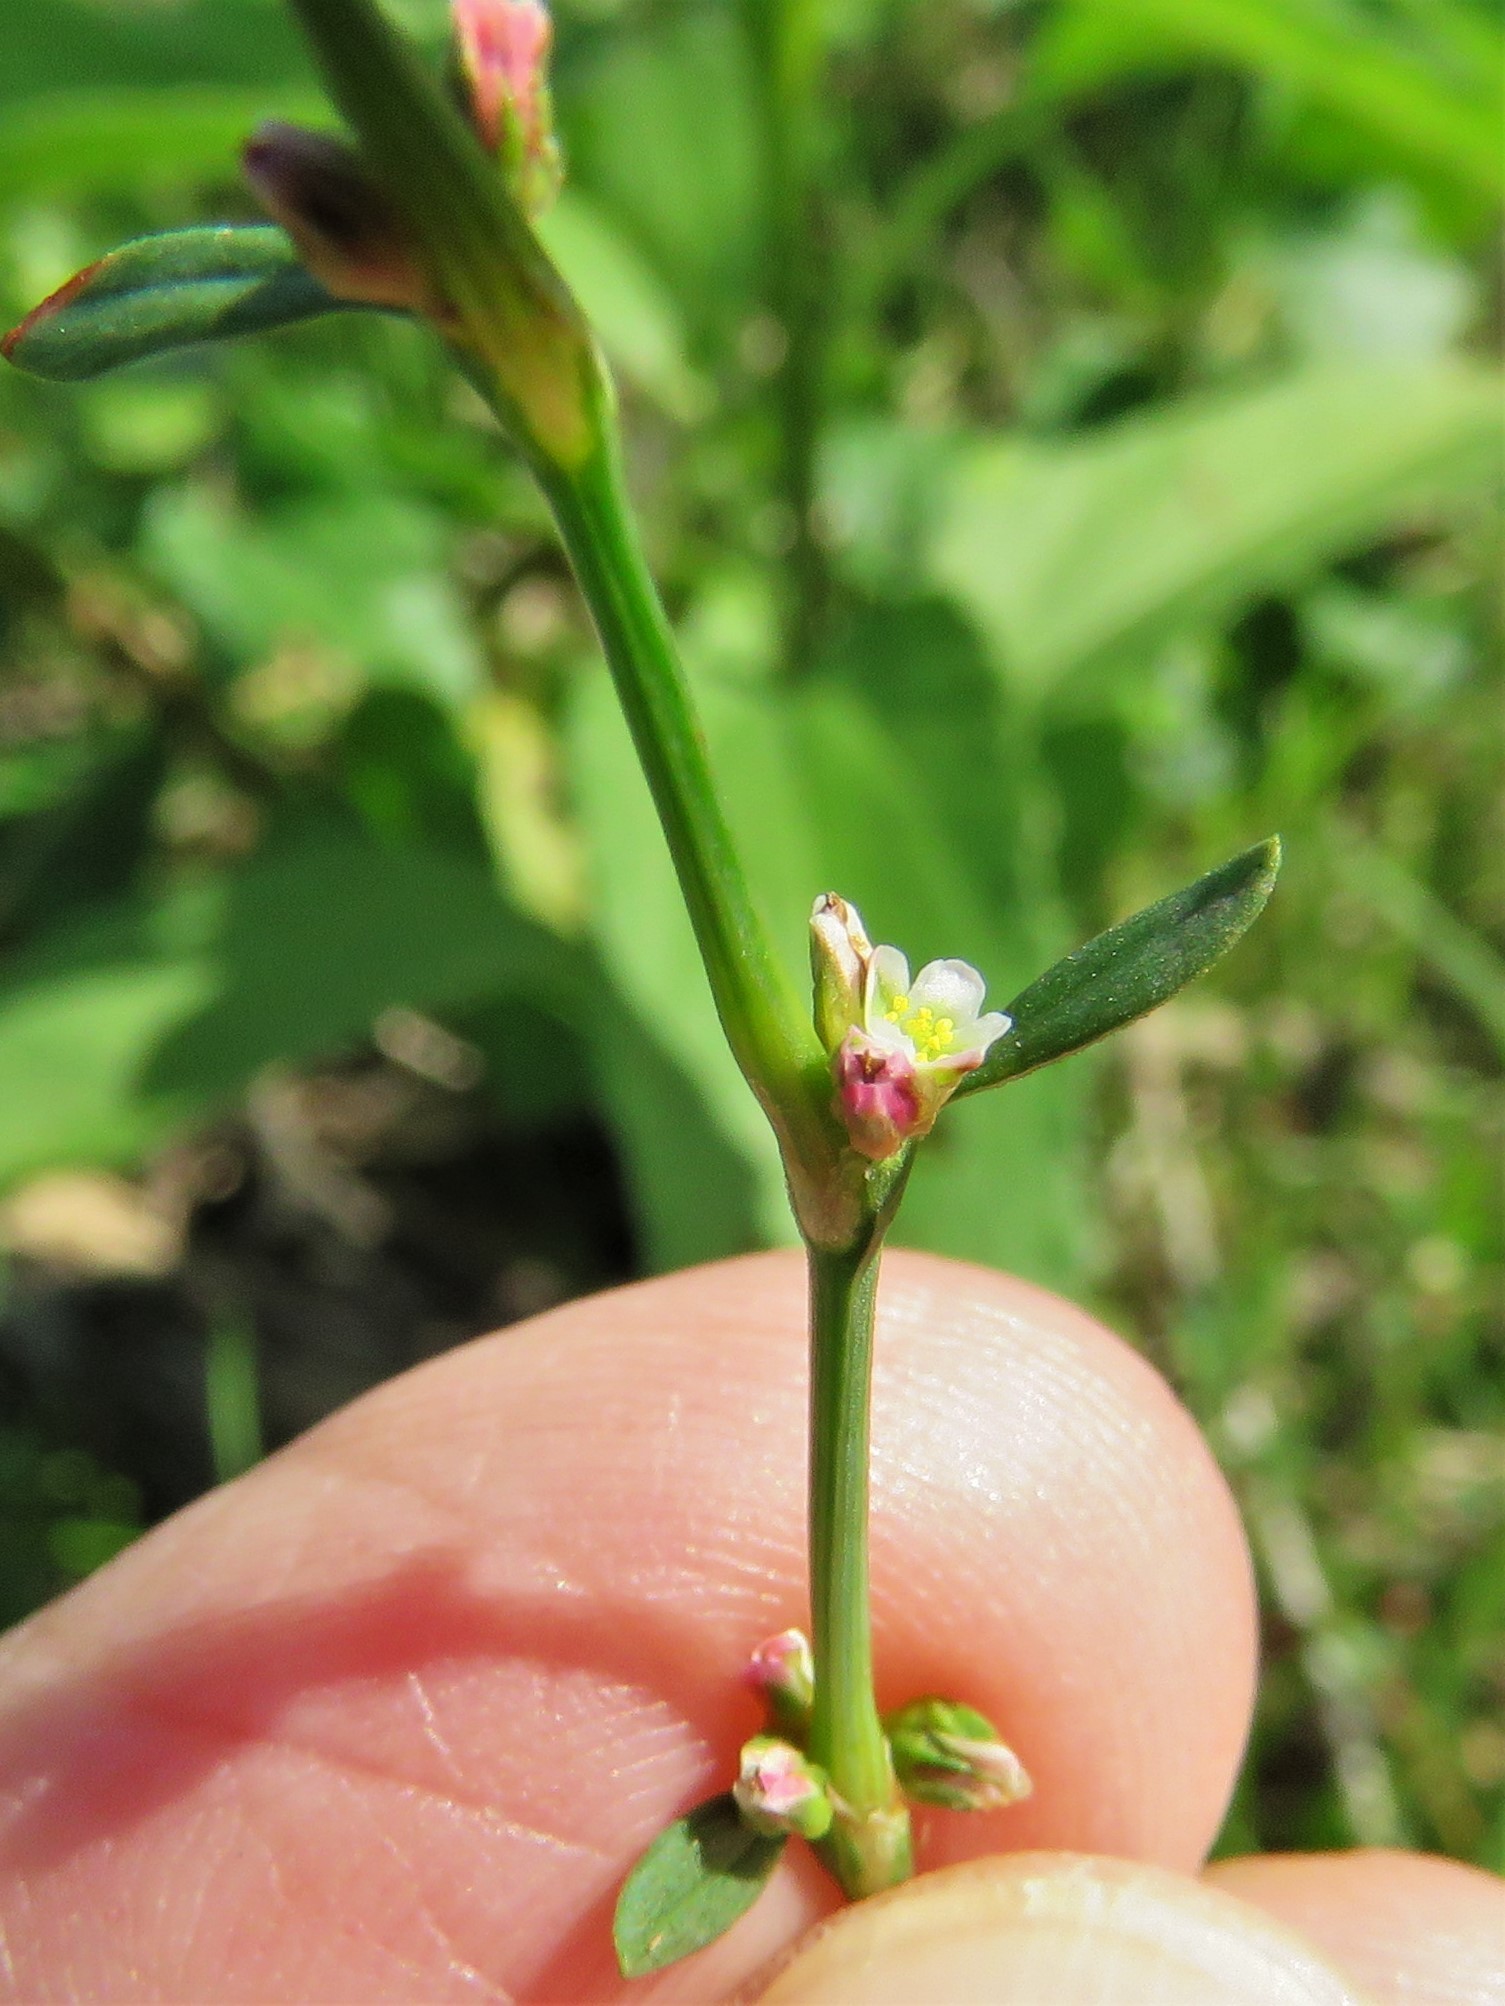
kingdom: Plantae
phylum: Tracheophyta
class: Magnoliopsida
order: Caryophyllales
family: Polygonaceae
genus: Polygonum
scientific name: Polygonum aviculare
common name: Prostrate knotweed
